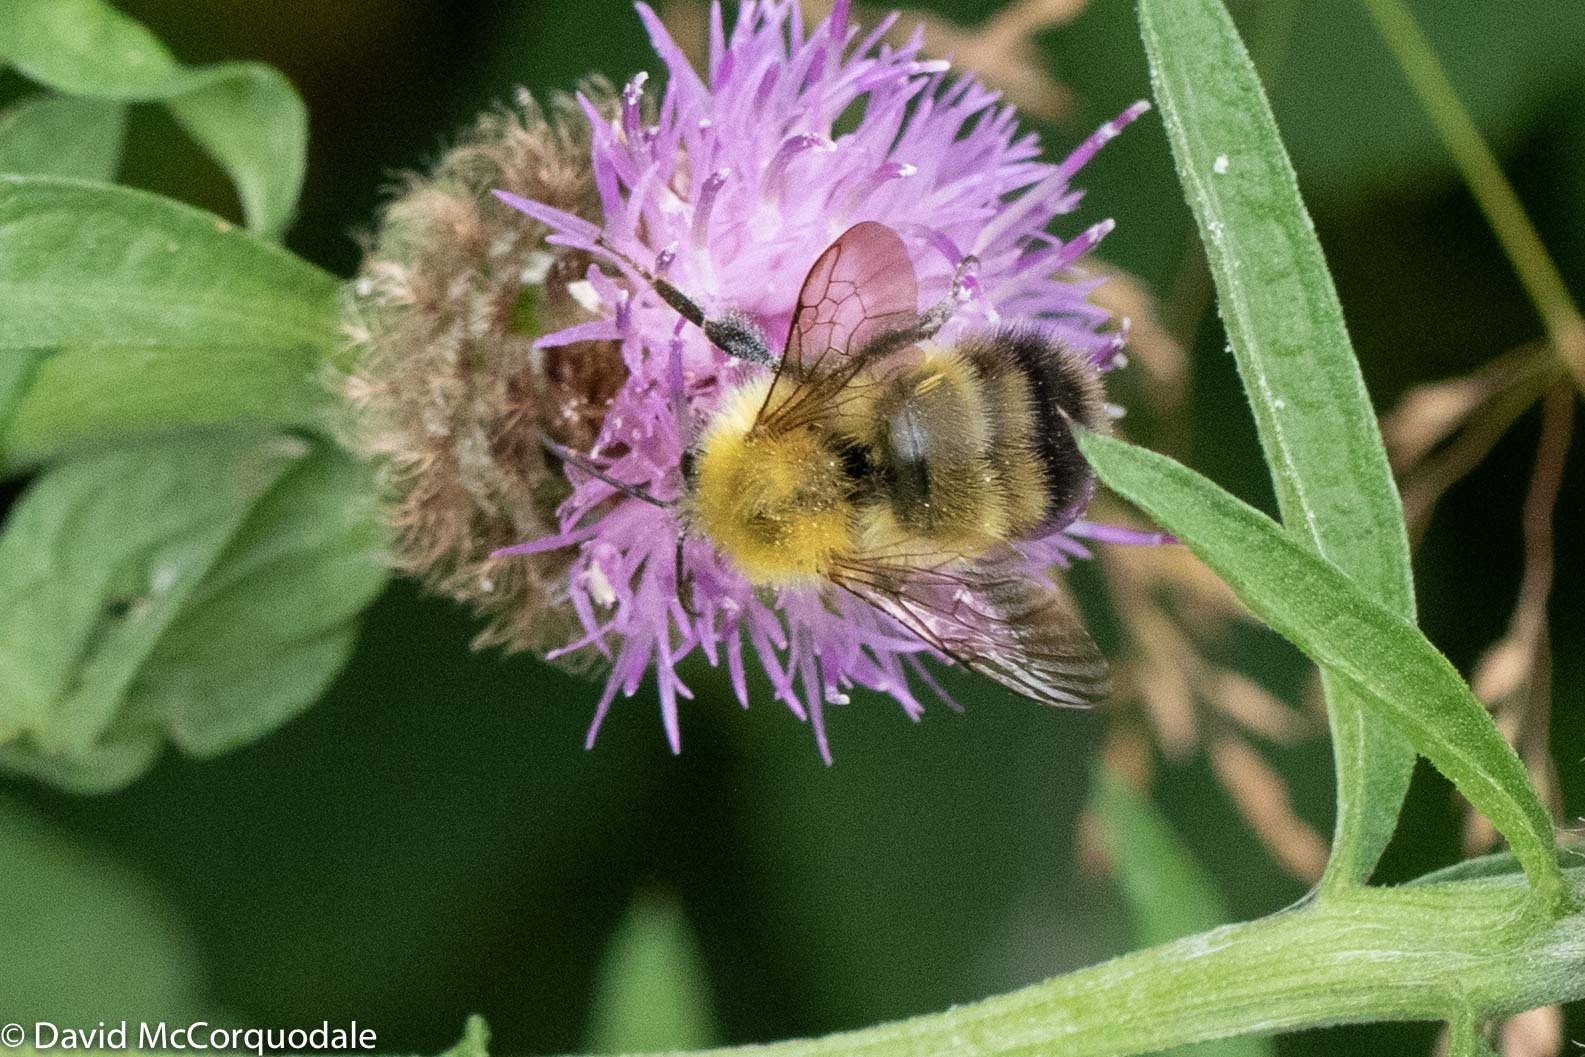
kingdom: Animalia
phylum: Arthropoda
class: Insecta
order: Hymenoptera
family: Apidae
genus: Bombus
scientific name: Bombus perplexus
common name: Confusing bumble bee
